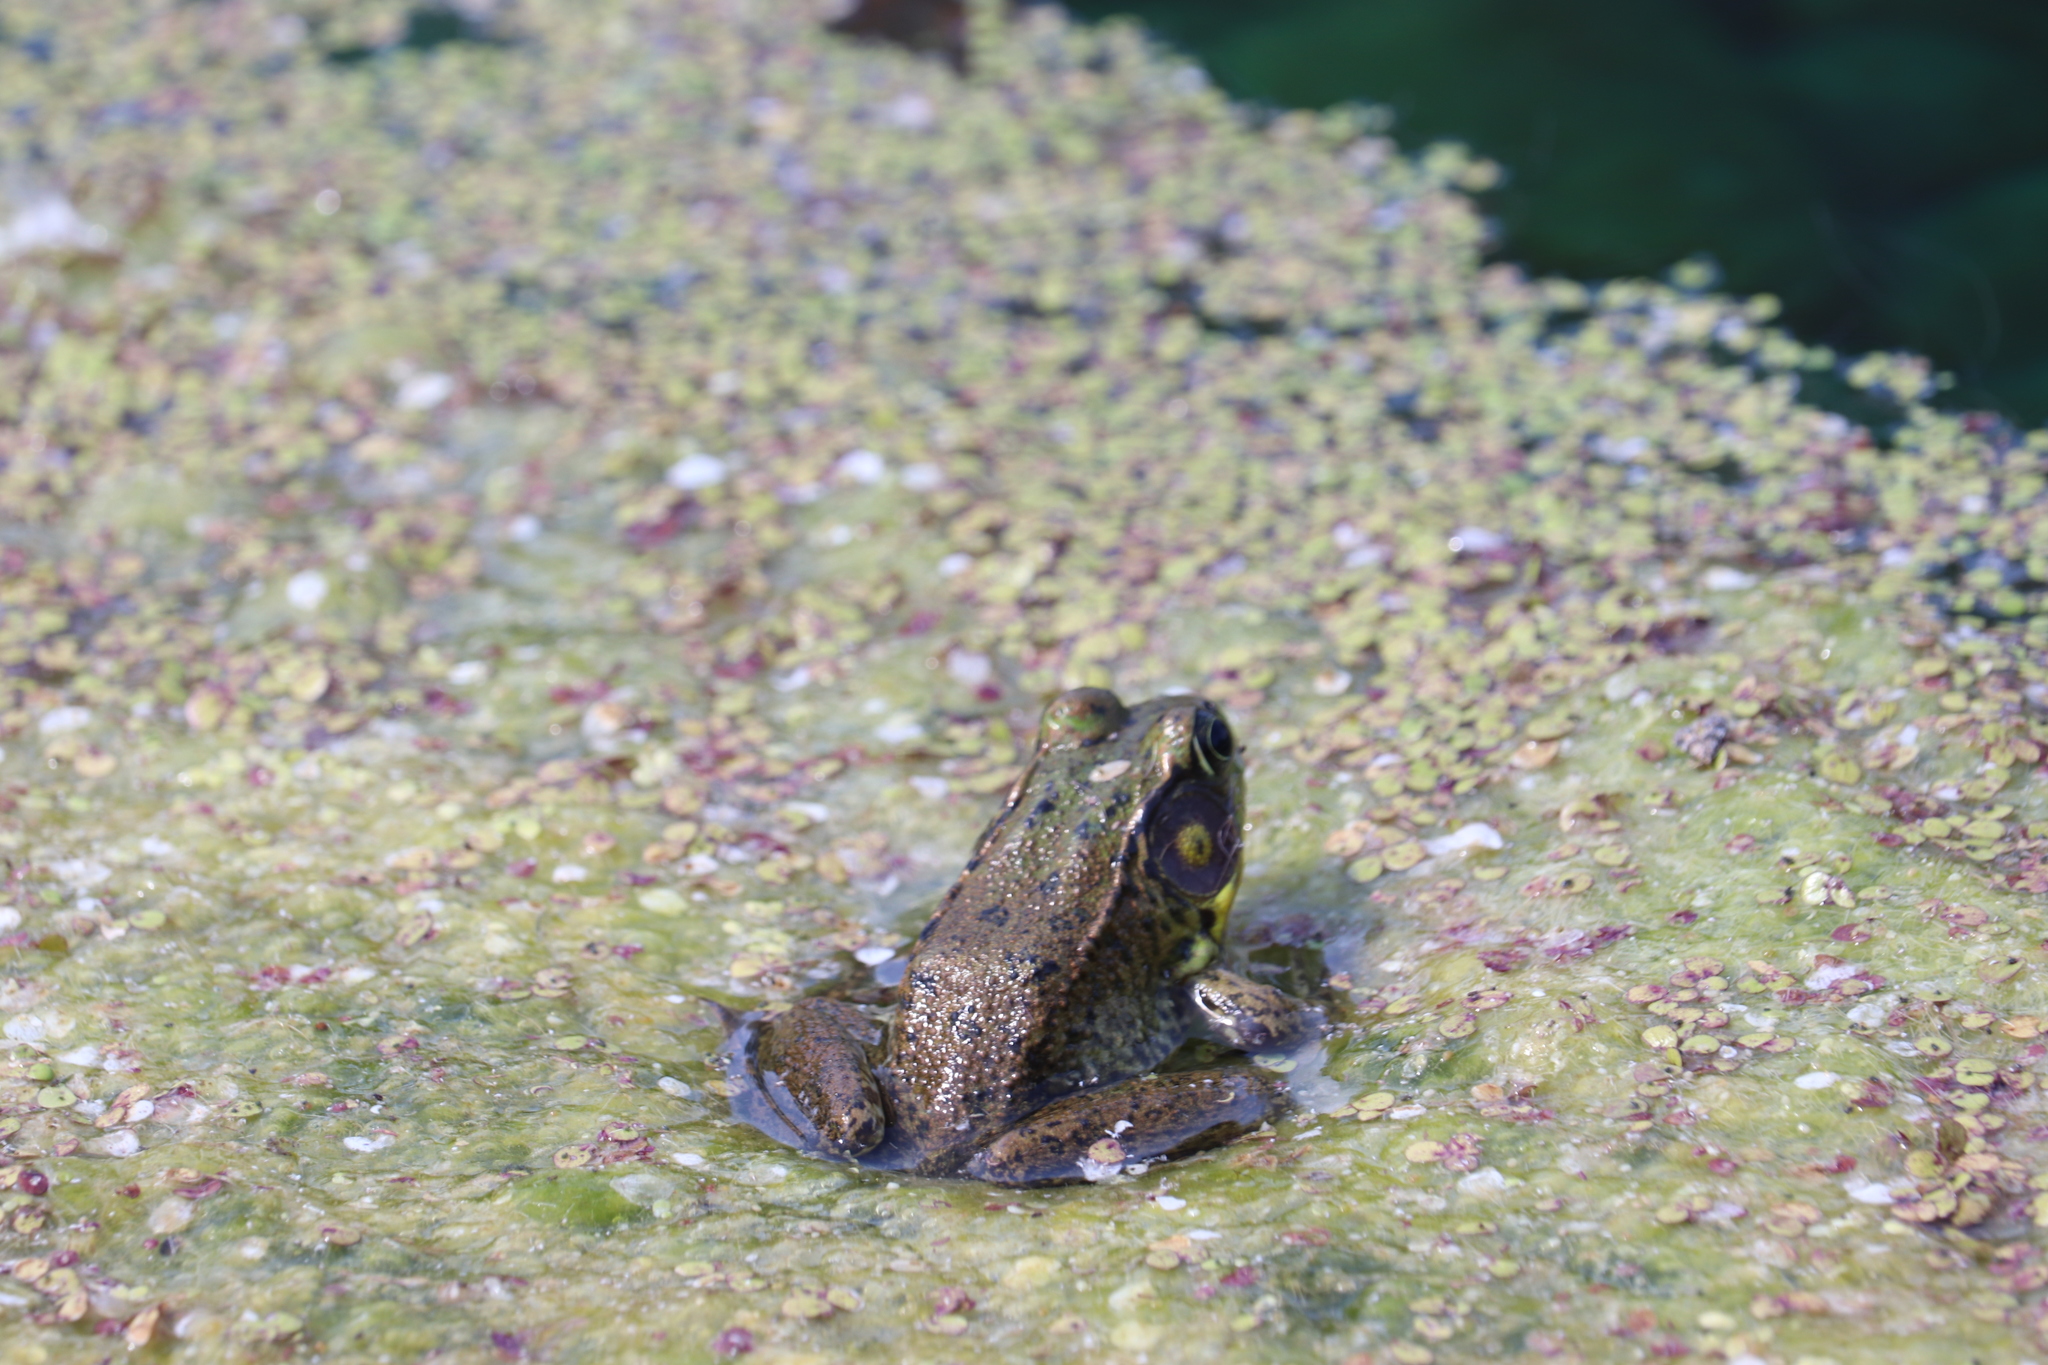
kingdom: Animalia
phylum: Chordata
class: Amphibia
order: Anura
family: Ranidae
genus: Lithobates
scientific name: Lithobates clamitans
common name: Green frog
